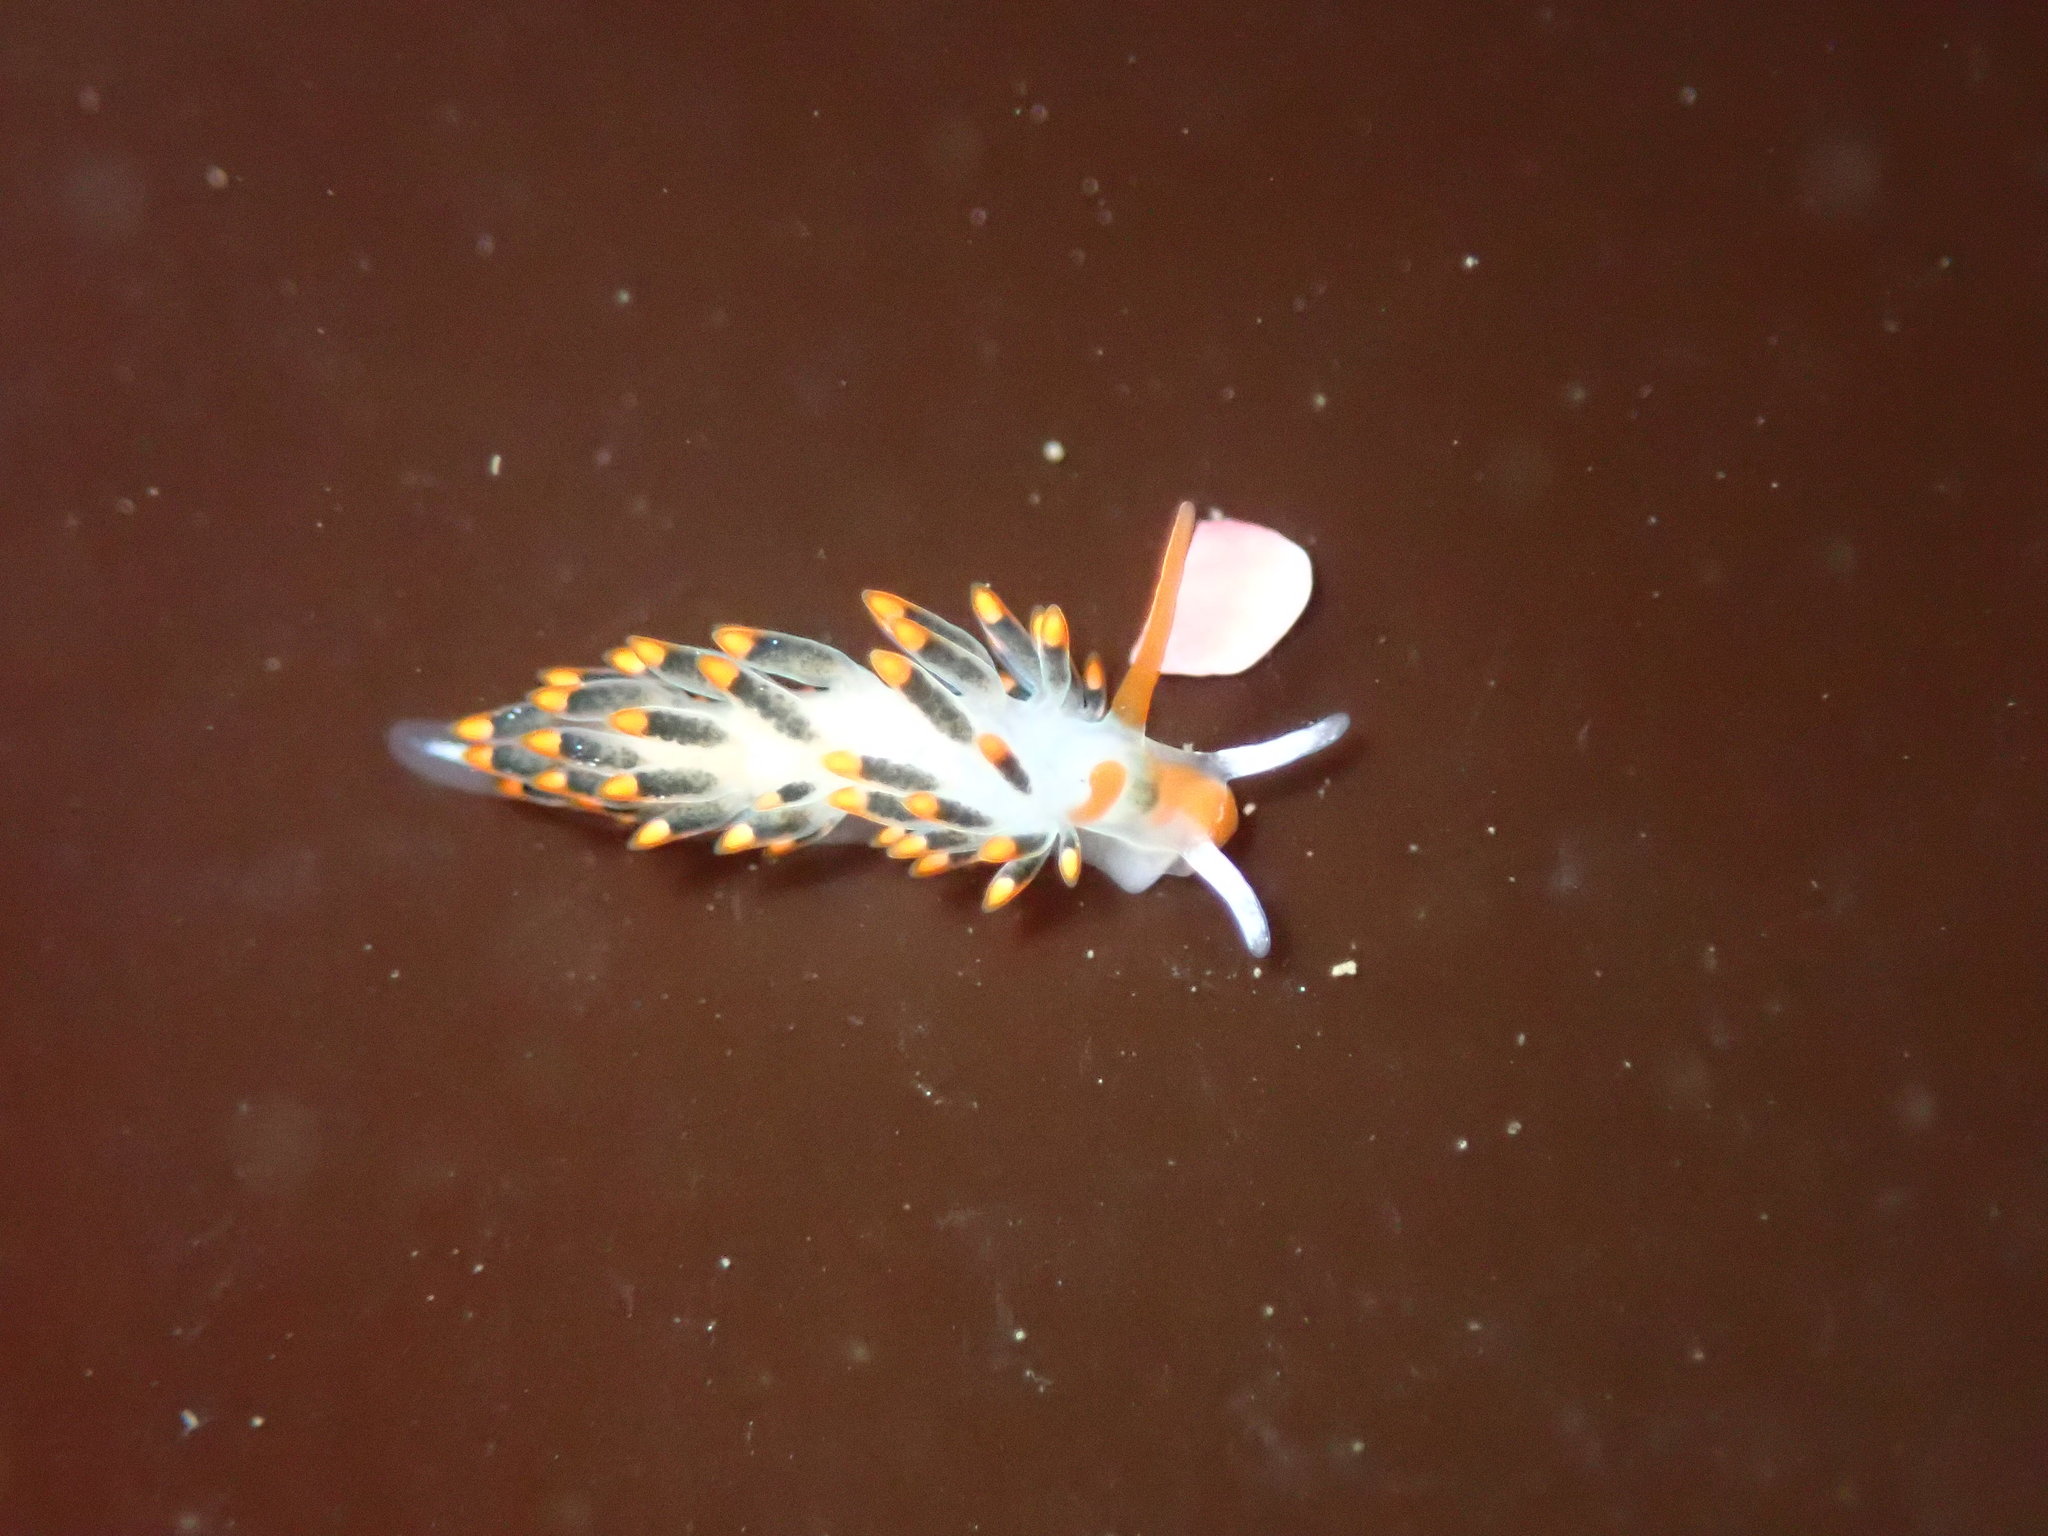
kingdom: Animalia
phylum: Mollusca
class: Gastropoda
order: Nudibranchia
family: Trinchesiidae
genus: Diaphoreolis
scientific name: Diaphoreolis lagunae
